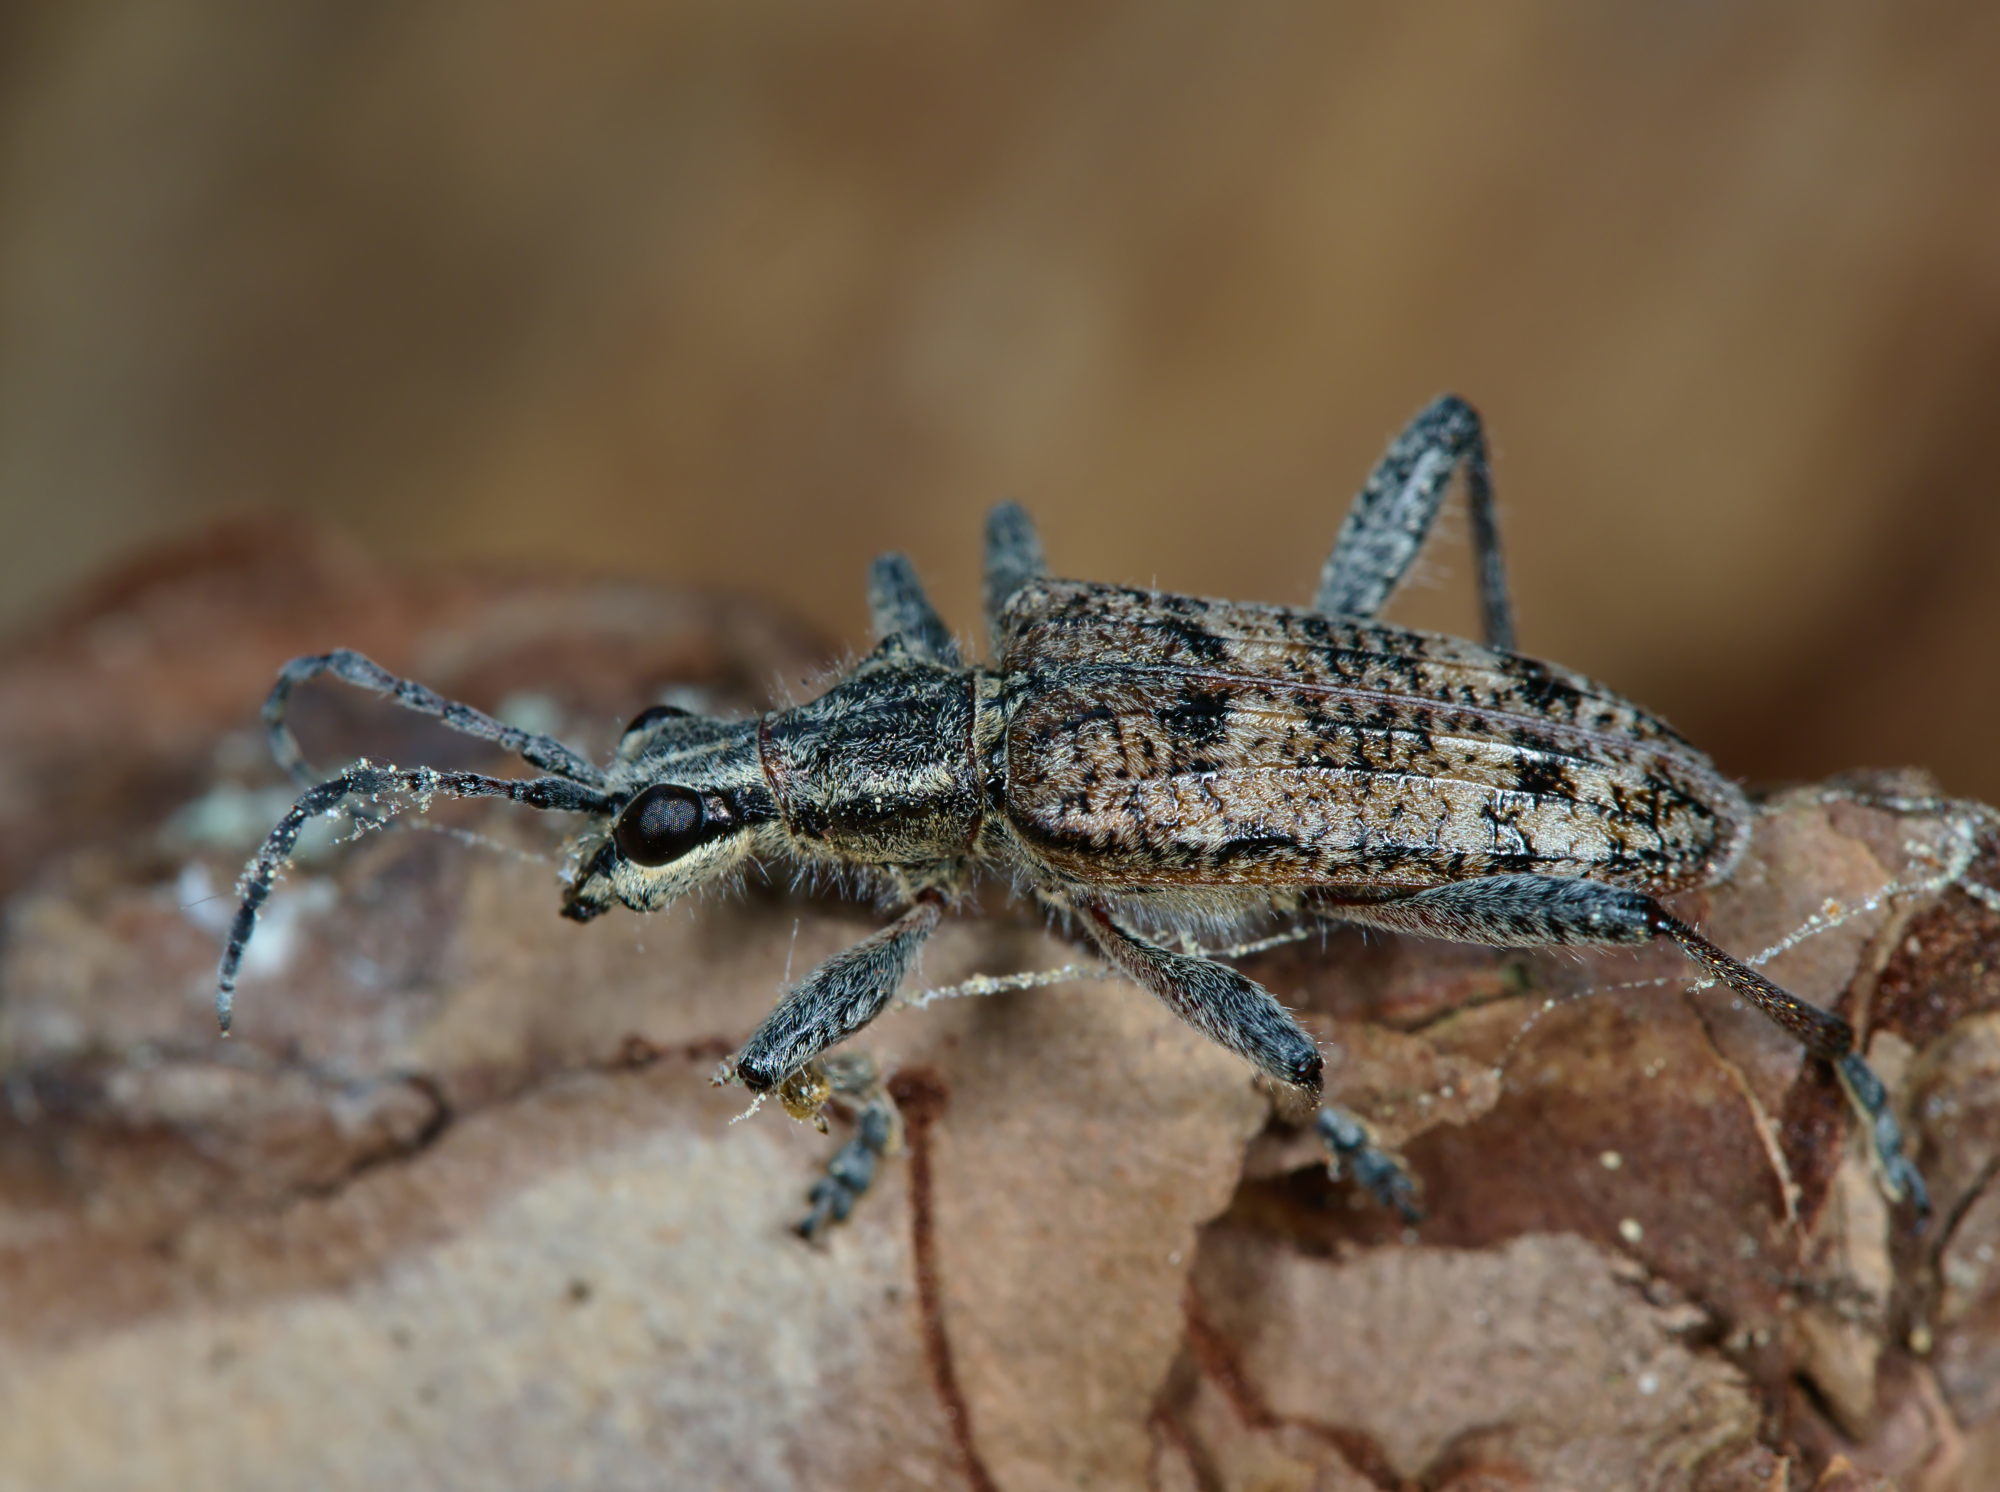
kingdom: Animalia
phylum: Arthropoda
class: Insecta
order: Coleoptera
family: Cerambycidae
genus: Rhagium
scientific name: Rhagium inquisitor
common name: Ribbed pine borer
